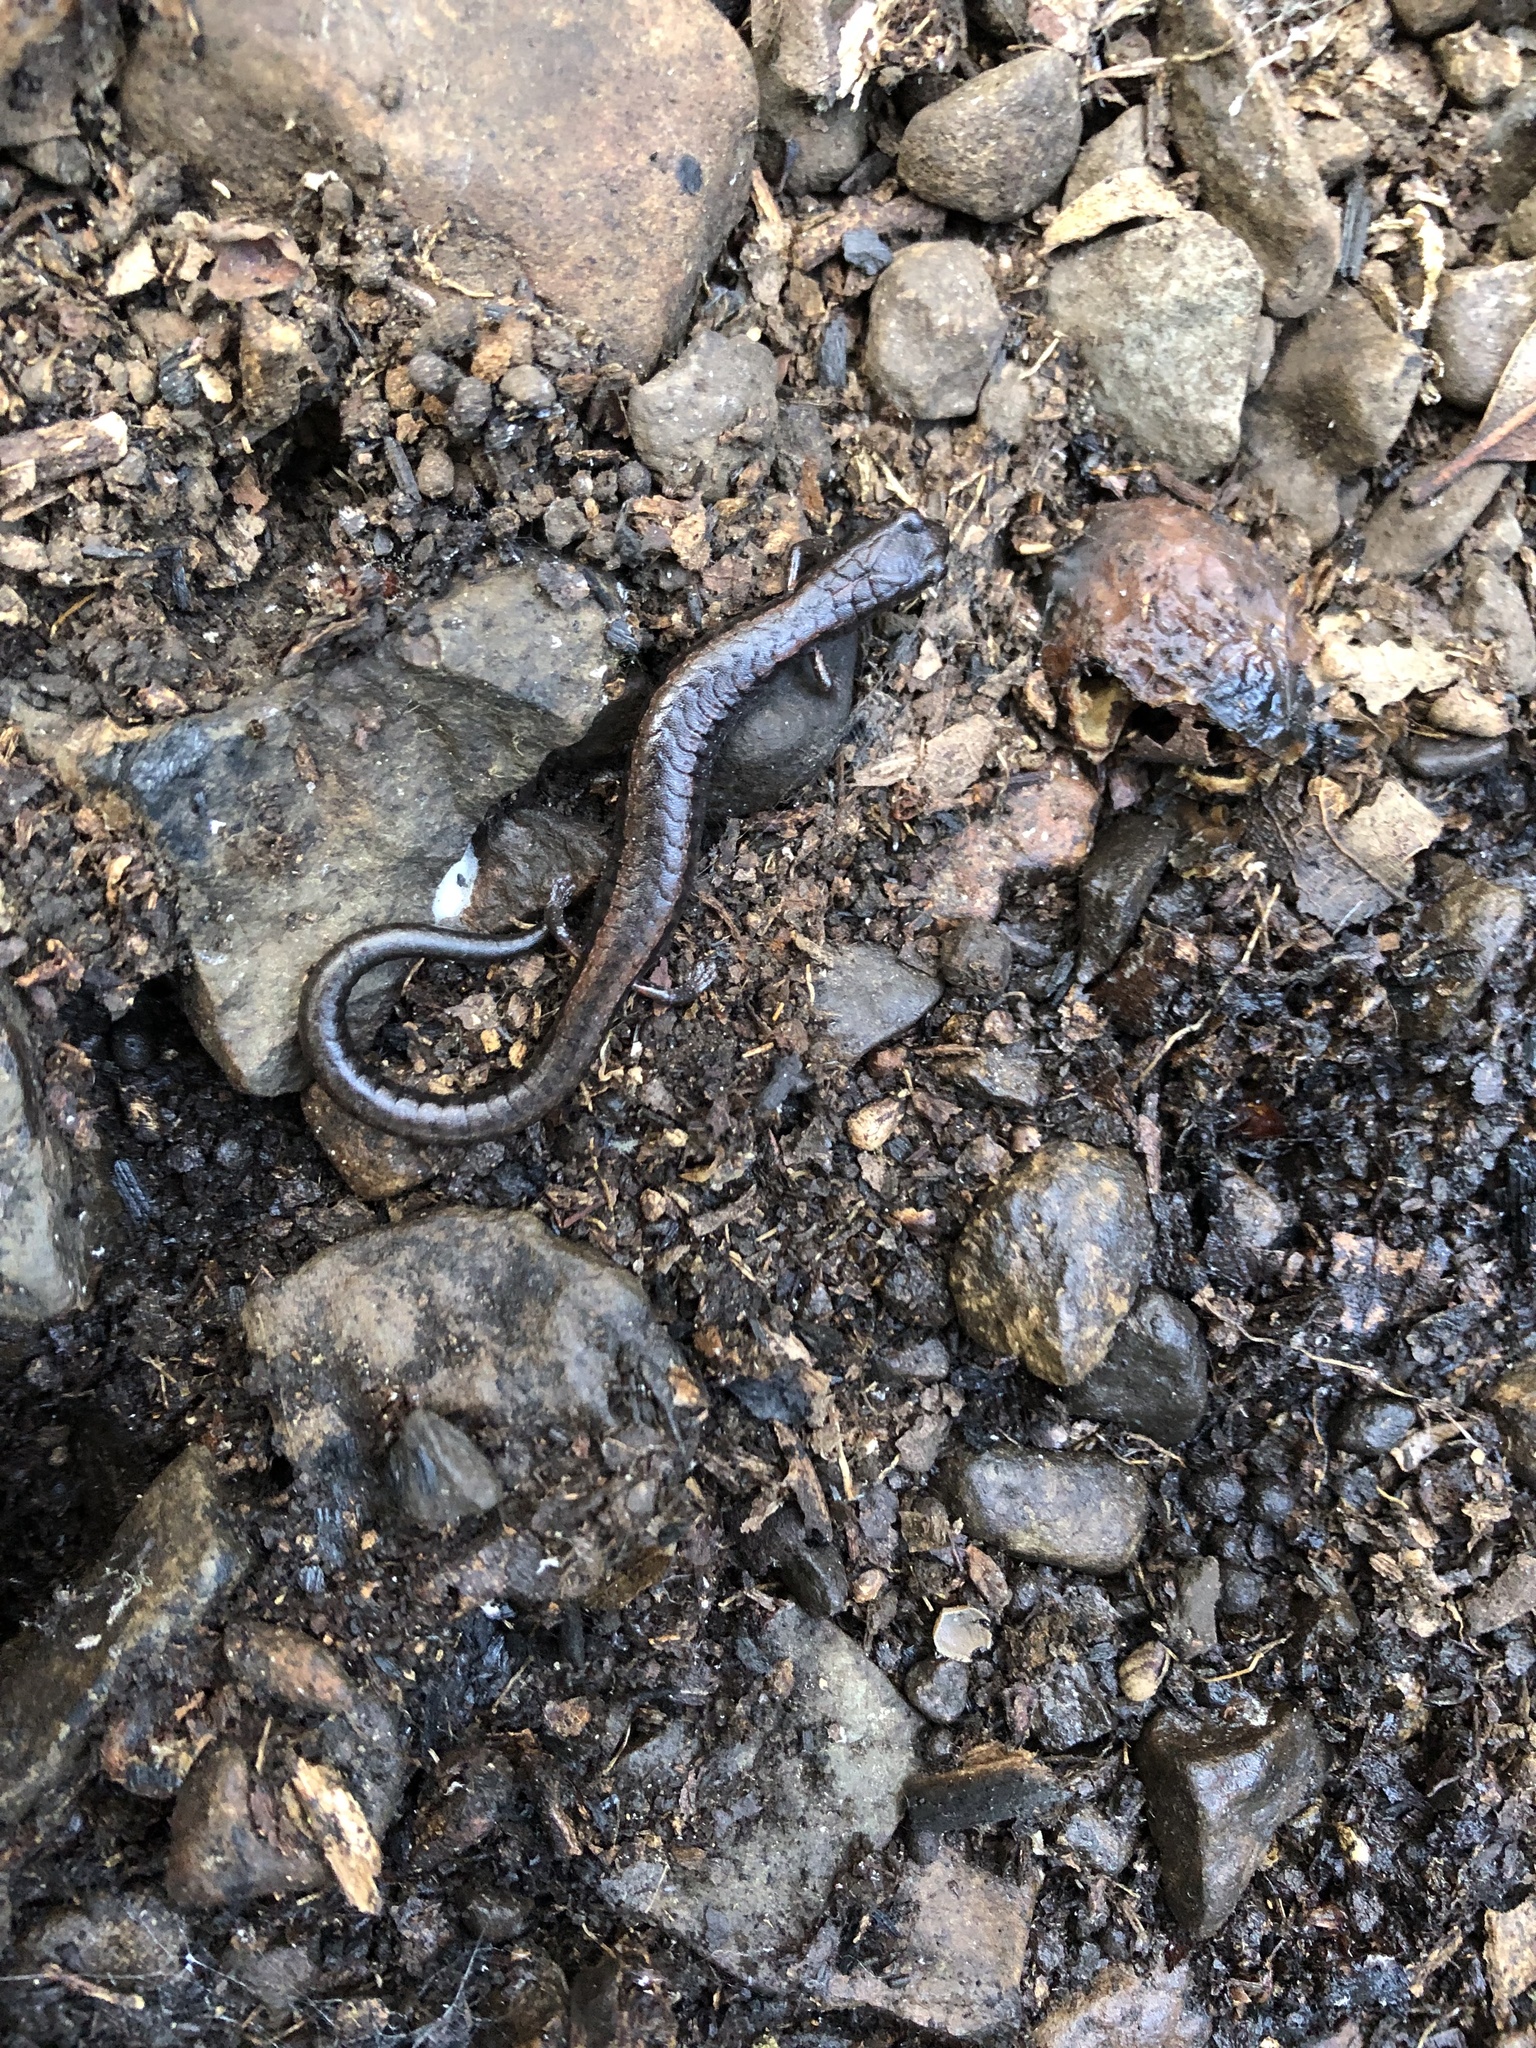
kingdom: Animalia
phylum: Chordata
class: Amphibia
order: Caudata
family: Plethodontidae
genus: Batrachoseps
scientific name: Batrachoseps attenuatus
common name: California slender salamander
